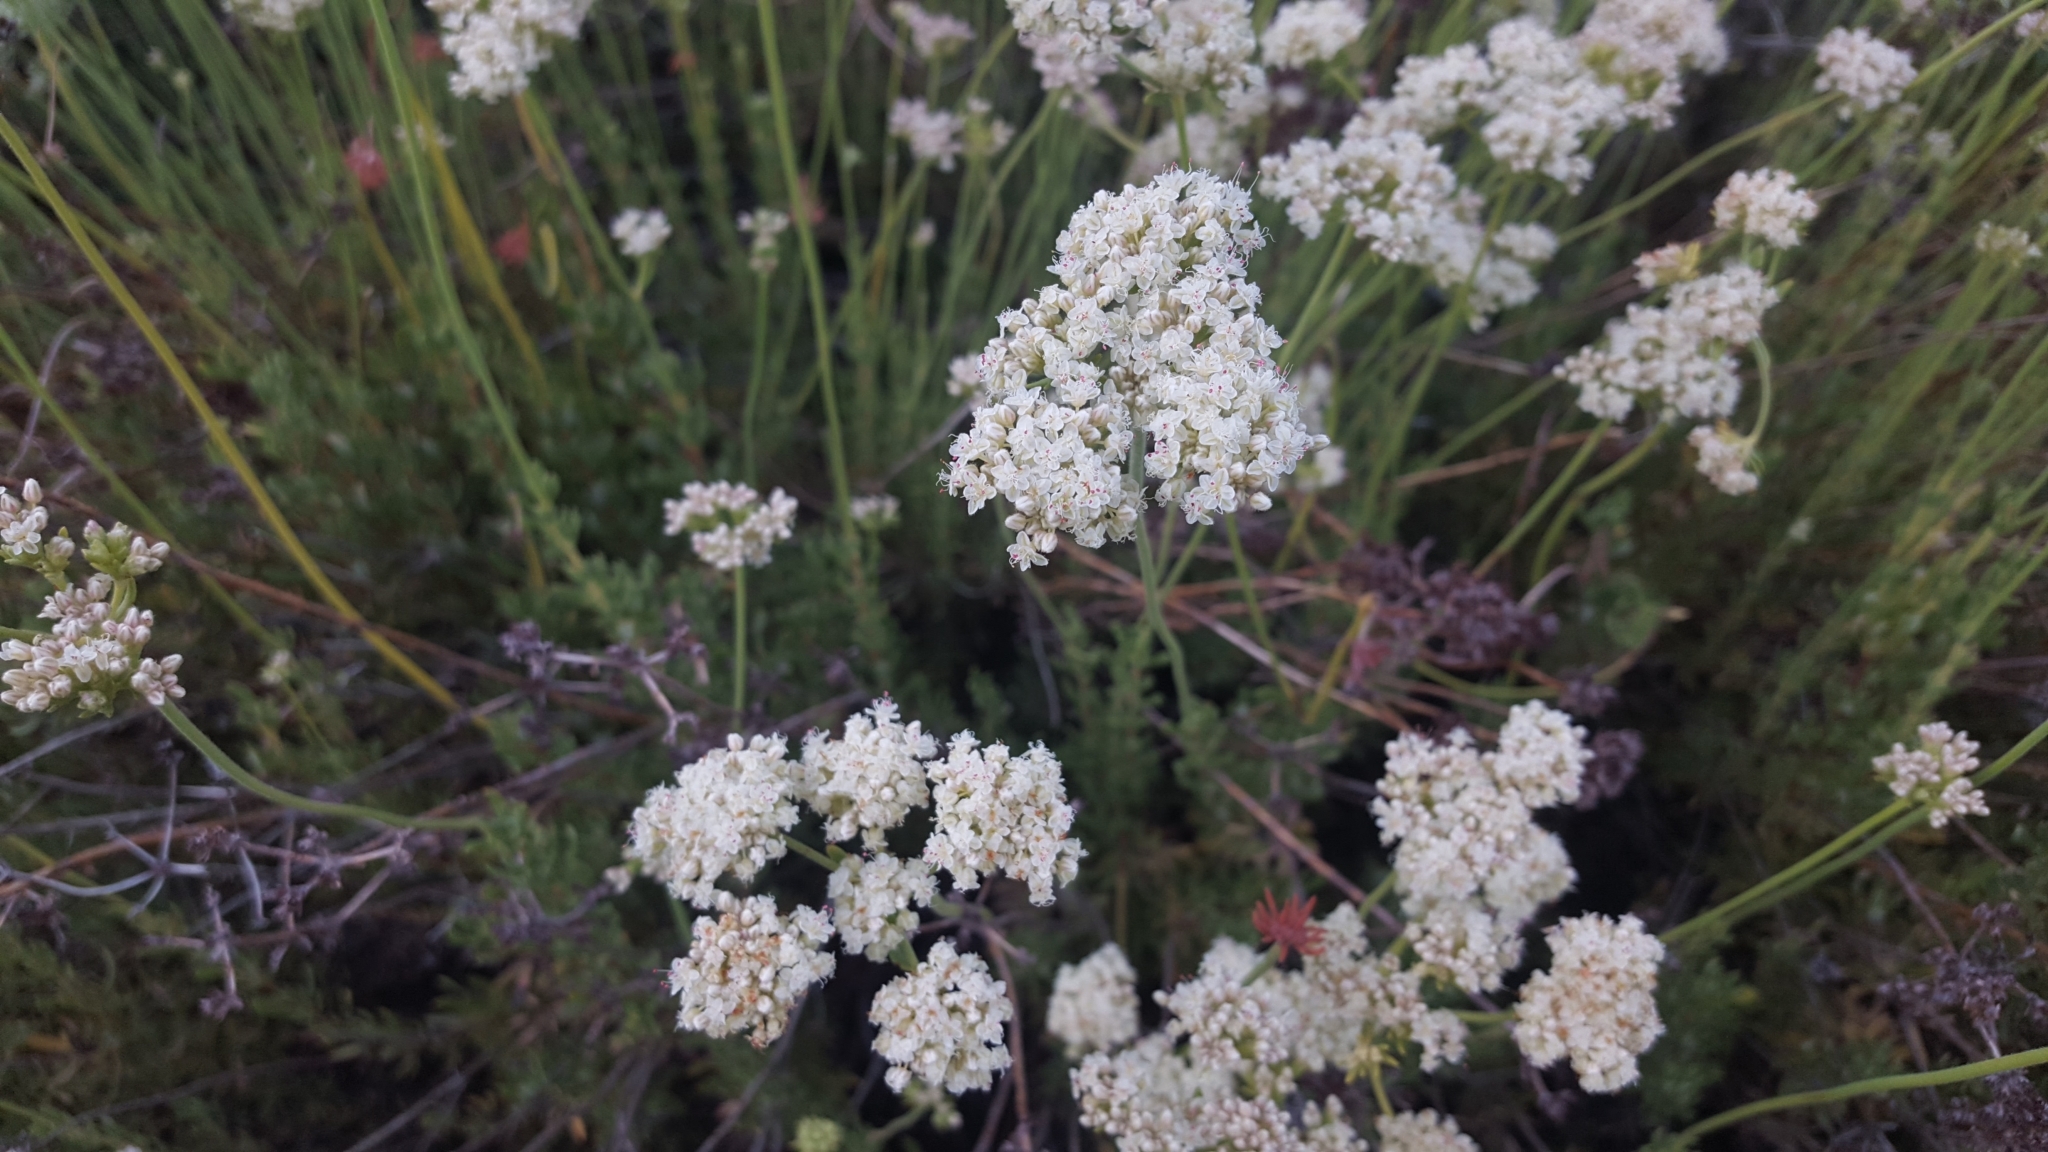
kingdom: Plantae
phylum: Tracheophyta
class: Magnoliopsida
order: Caryophyllales
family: Polygonaceae
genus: Eriogonum
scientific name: Eriogonum fasciculatum
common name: California wild buckwheat
